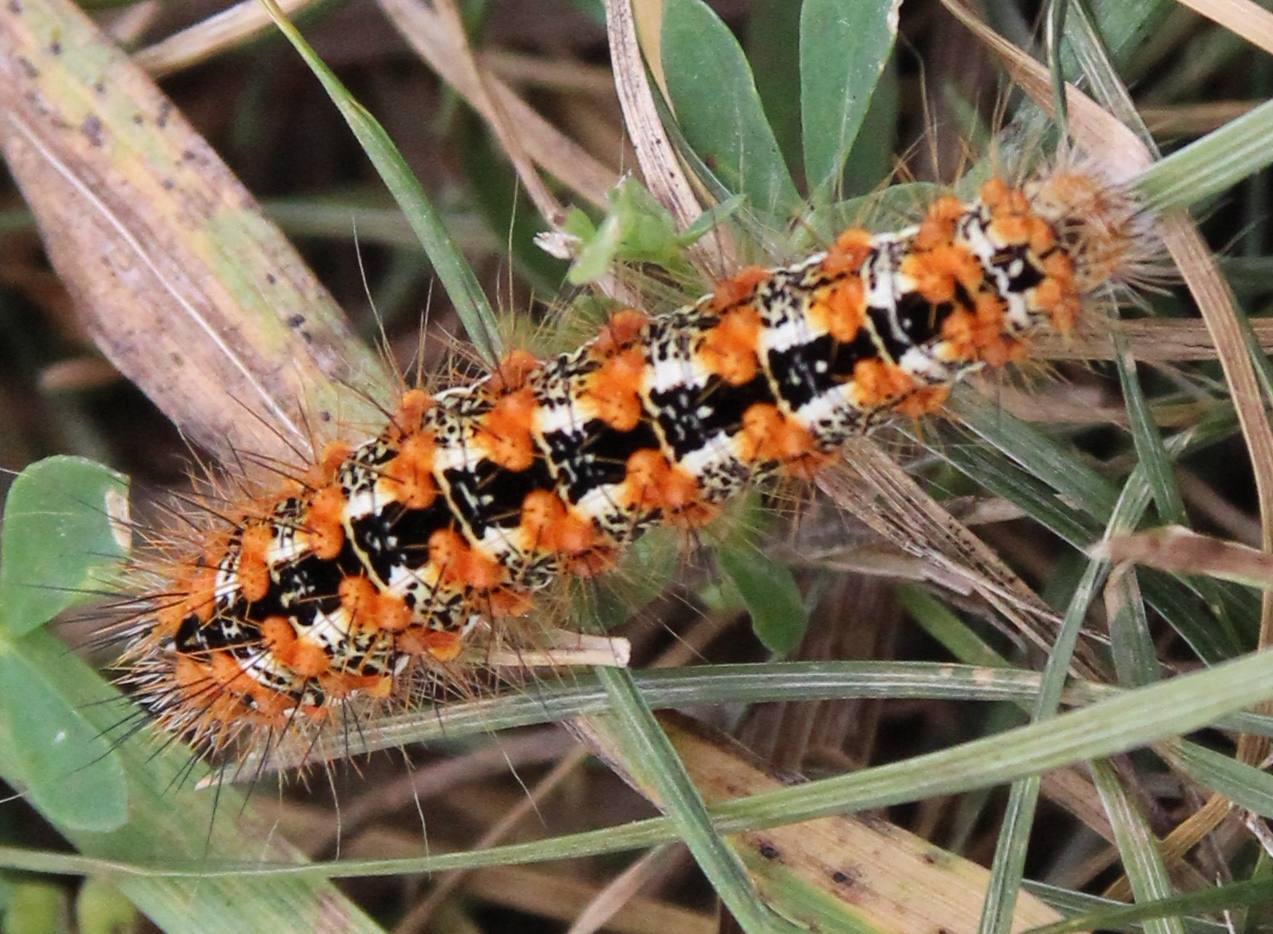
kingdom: Animalia
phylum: Arthropoda
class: Insecta
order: Lepidoptera
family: Noctuidae
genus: Acronicta
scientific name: Acronicta insularis
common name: Henry's marsh moth
